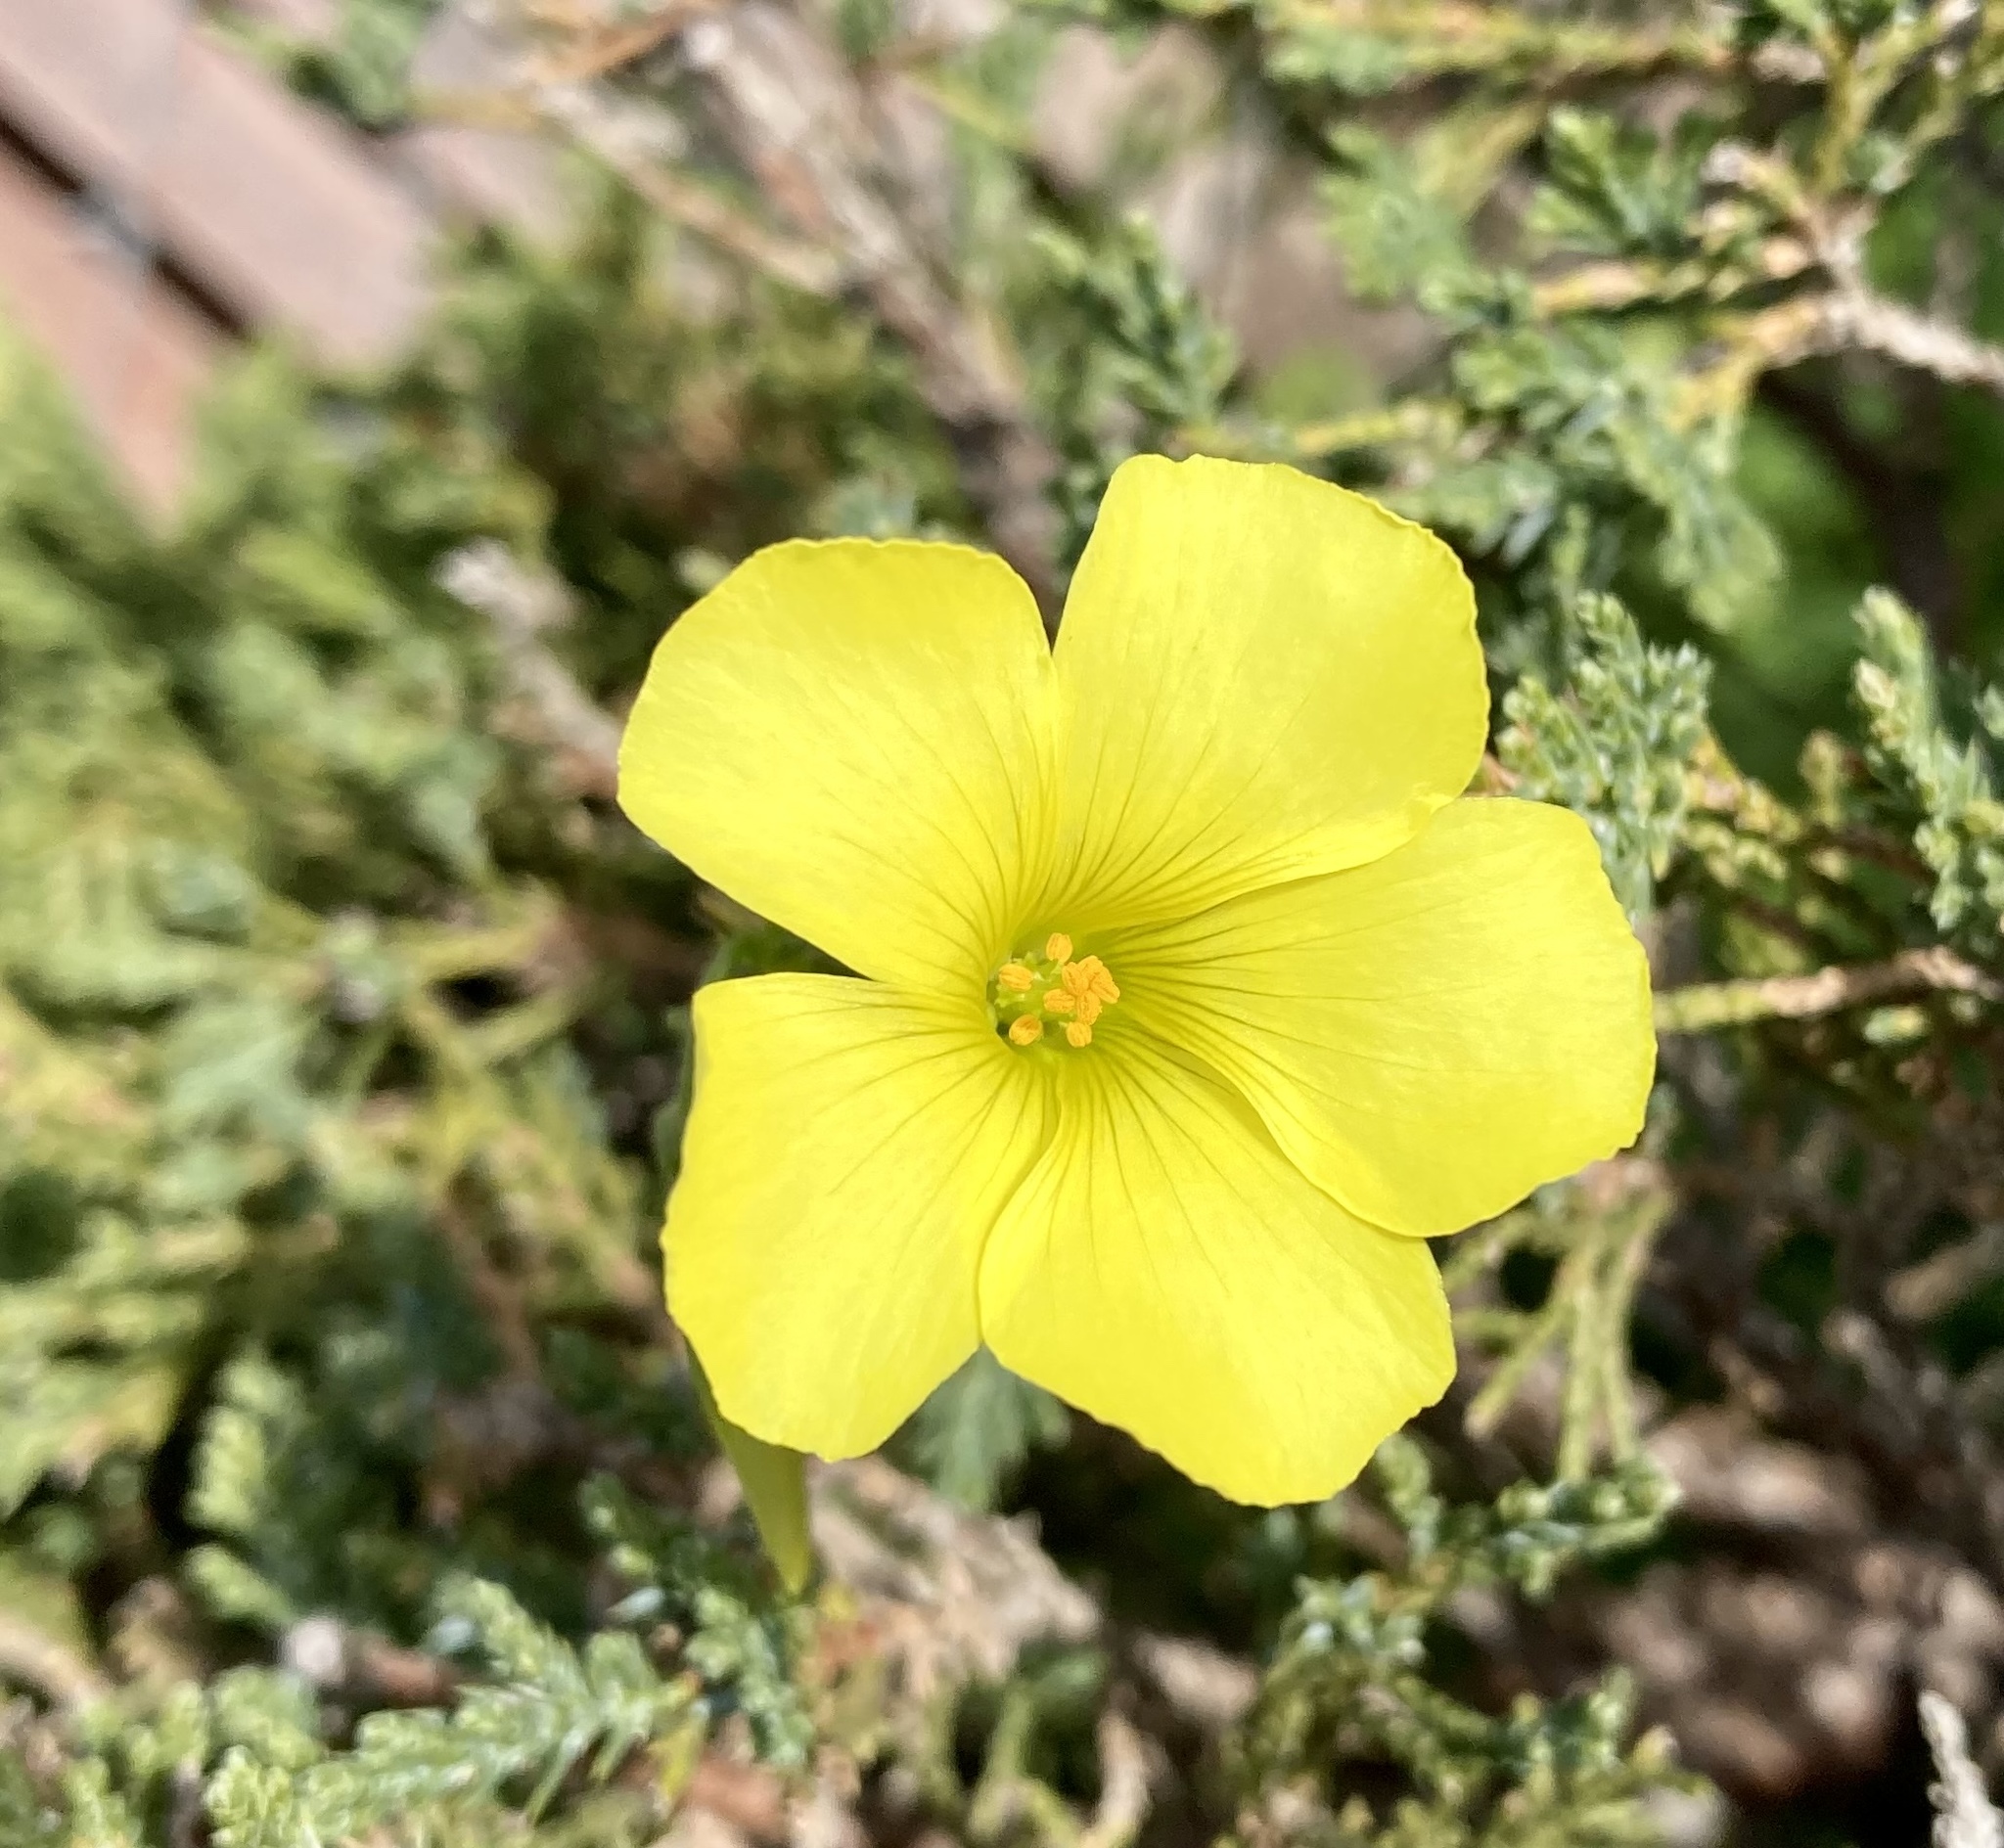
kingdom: Plantae
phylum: Tracheophyta
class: Magnoliopsida
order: Oxalidales
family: Oxalidaceae
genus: Oxalis
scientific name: Oxalis pes-caprae
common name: Bermuda-buttercup
